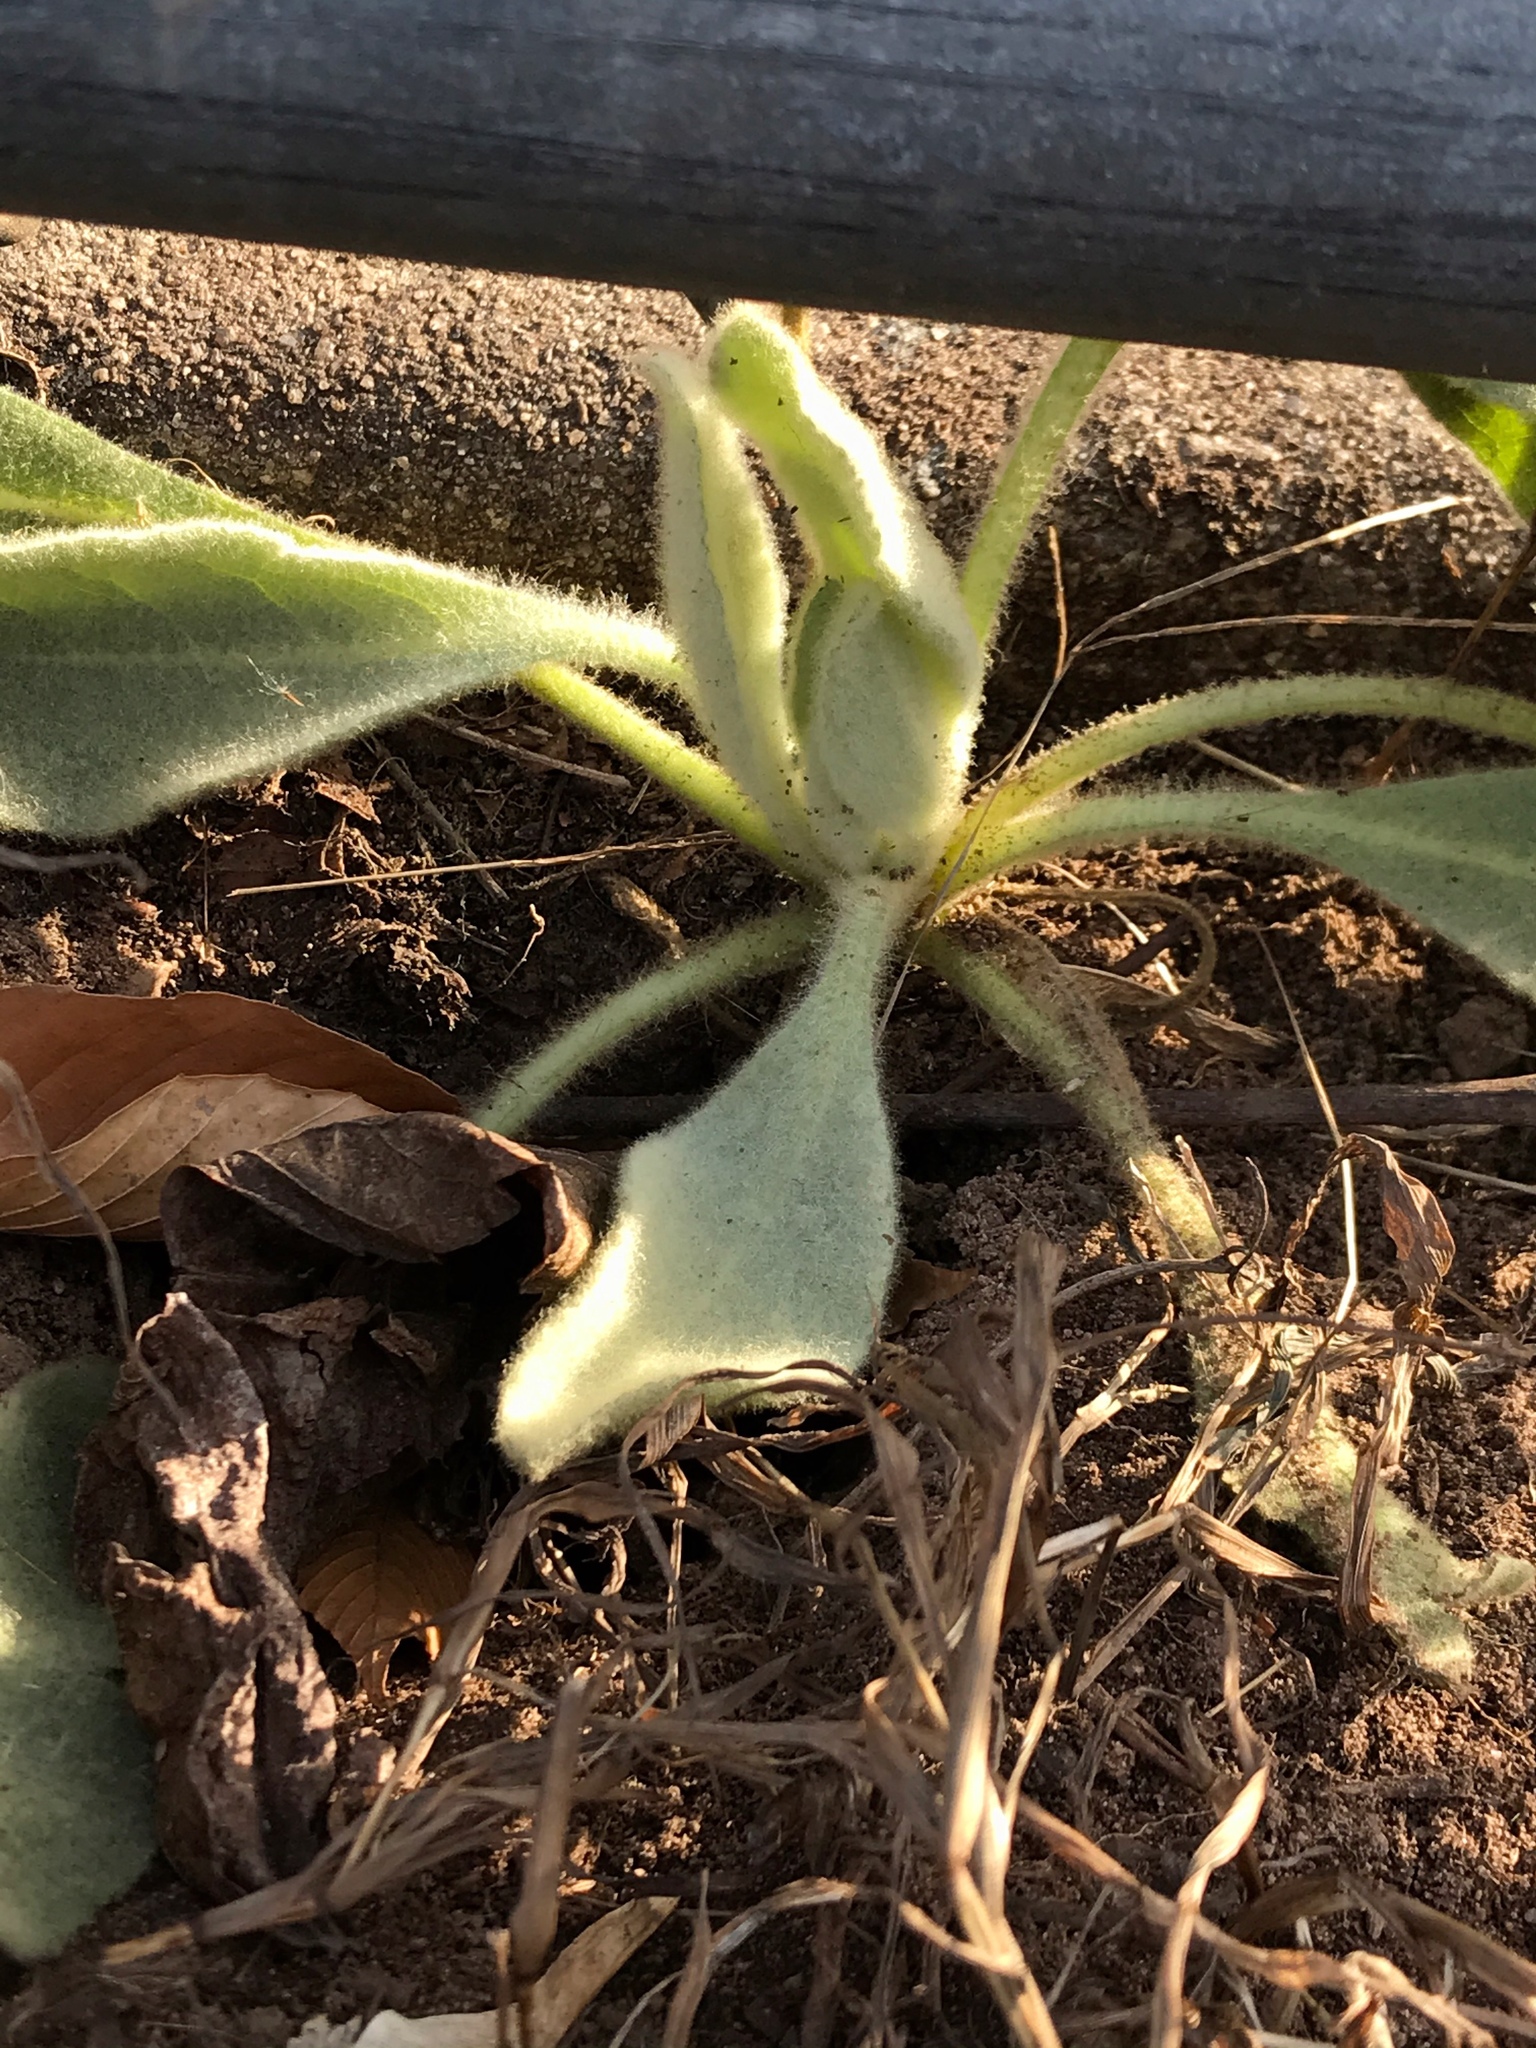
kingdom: Plantae
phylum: Tracheophyta
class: Magnoliopsida
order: Lamiales
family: Scrophulariaceae
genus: Verbascum
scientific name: Verbascum thapsus
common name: Common mullein
